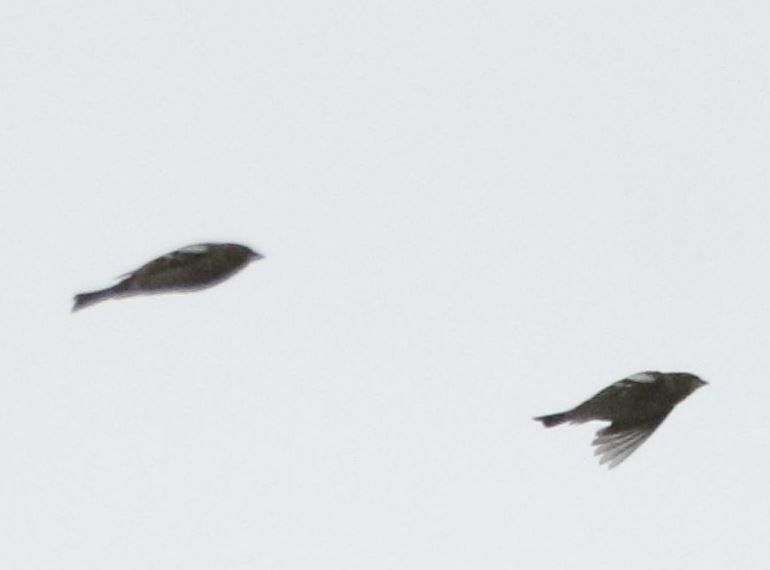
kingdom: Animalia
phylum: Chordata
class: Aves
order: Passeriformes
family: Fringillidae
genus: Fringilla
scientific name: Fringilla coelebs
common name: Common chaffinch
